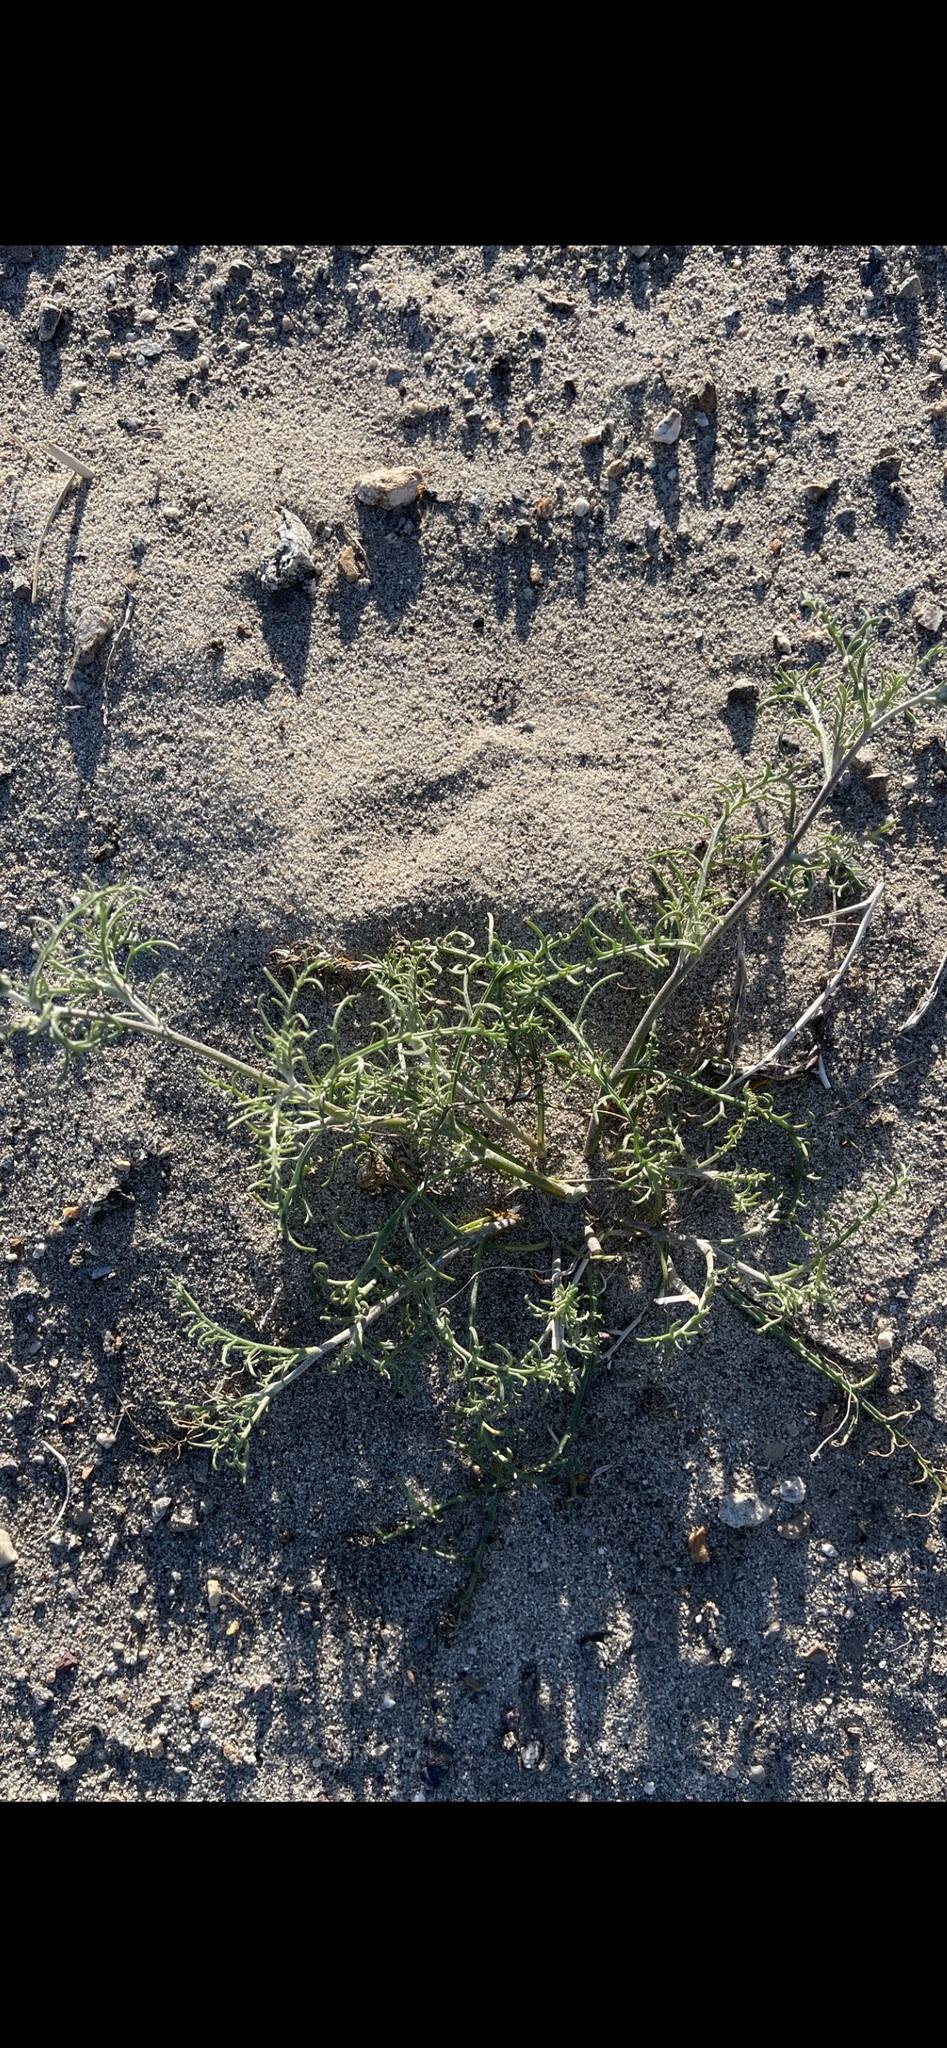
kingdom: Plantae
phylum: Tracheophyta
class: Magnoliopsida
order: Asterales
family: Asteraceae
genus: Chaenactis
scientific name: Chaenactis stevioides
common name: Desert pincushion
